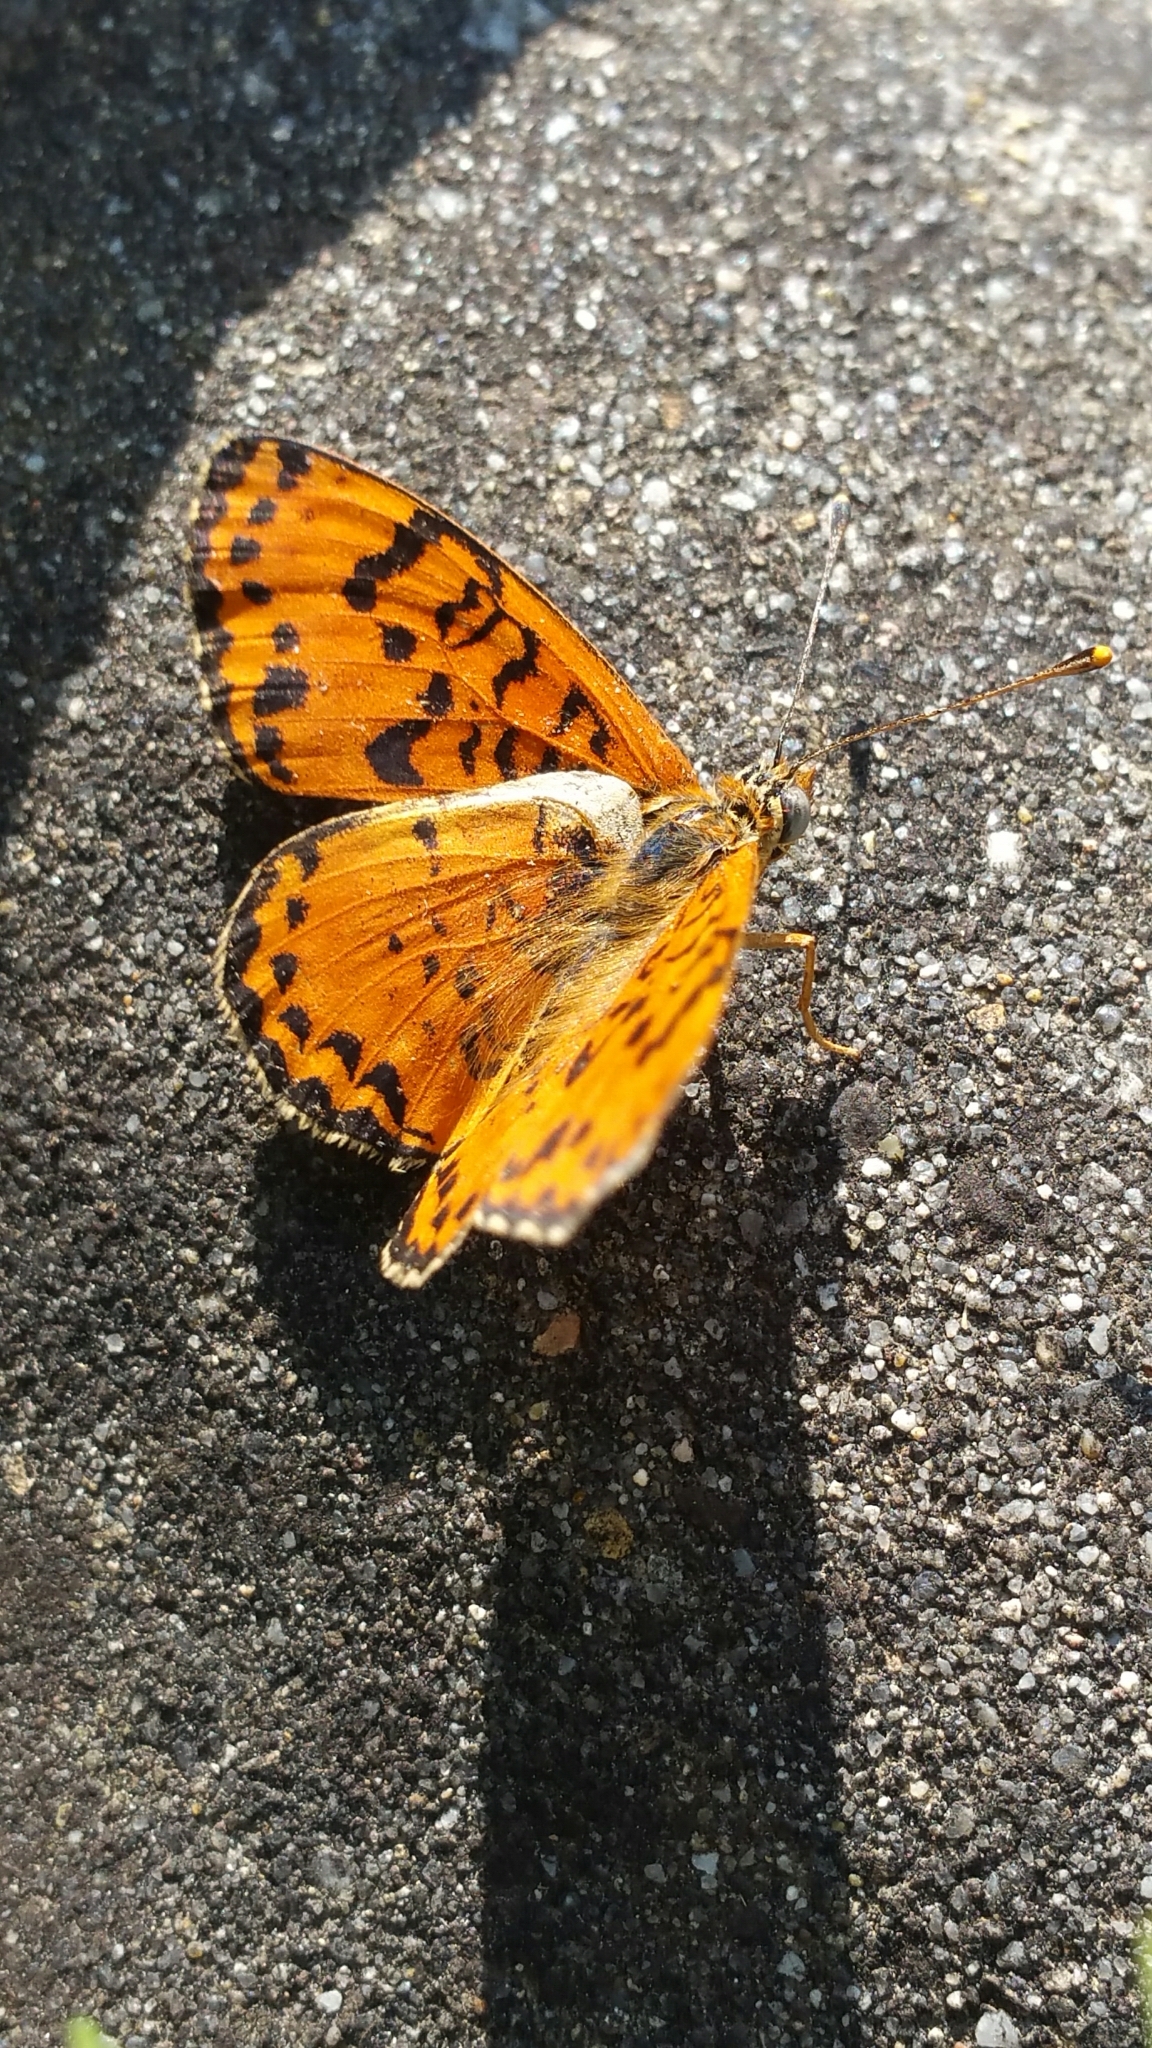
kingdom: Animalia
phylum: Arthropoda
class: Insecta
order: Lepidoptera
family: Nymphalidae
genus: Melitaea
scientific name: Melitaea didyma
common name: Spotted fritillary
